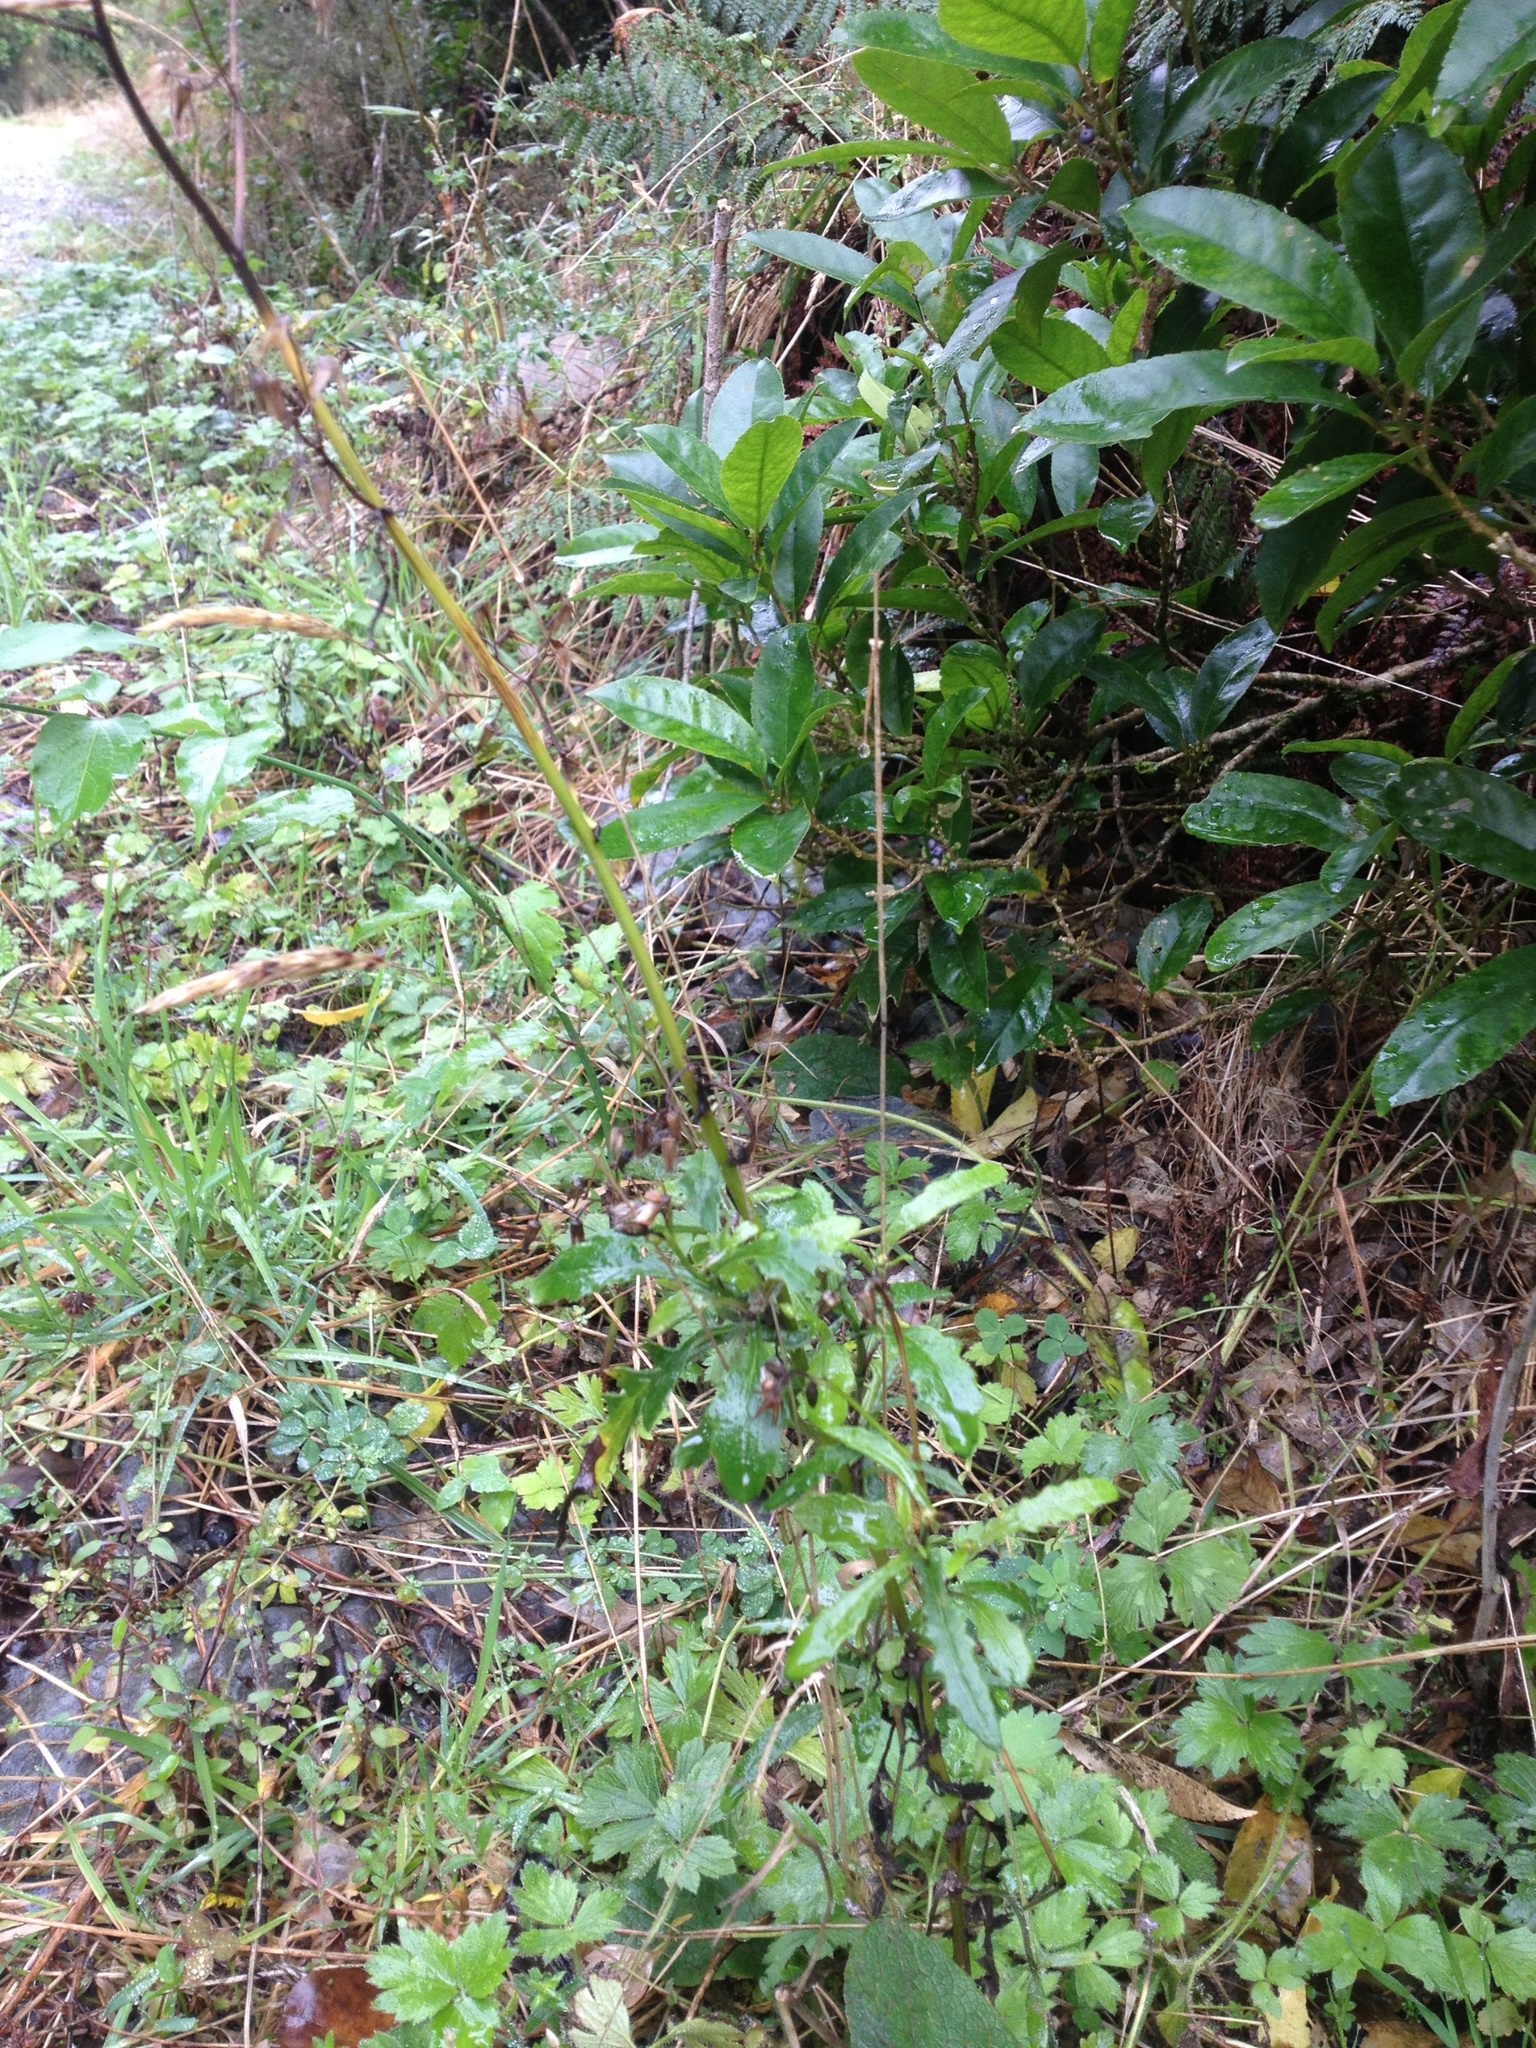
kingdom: Plantae
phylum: Tracheophyta
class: Magnoliopsida
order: Asterales
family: Asteraceae
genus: Senecio
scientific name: Senecio wairauensis
